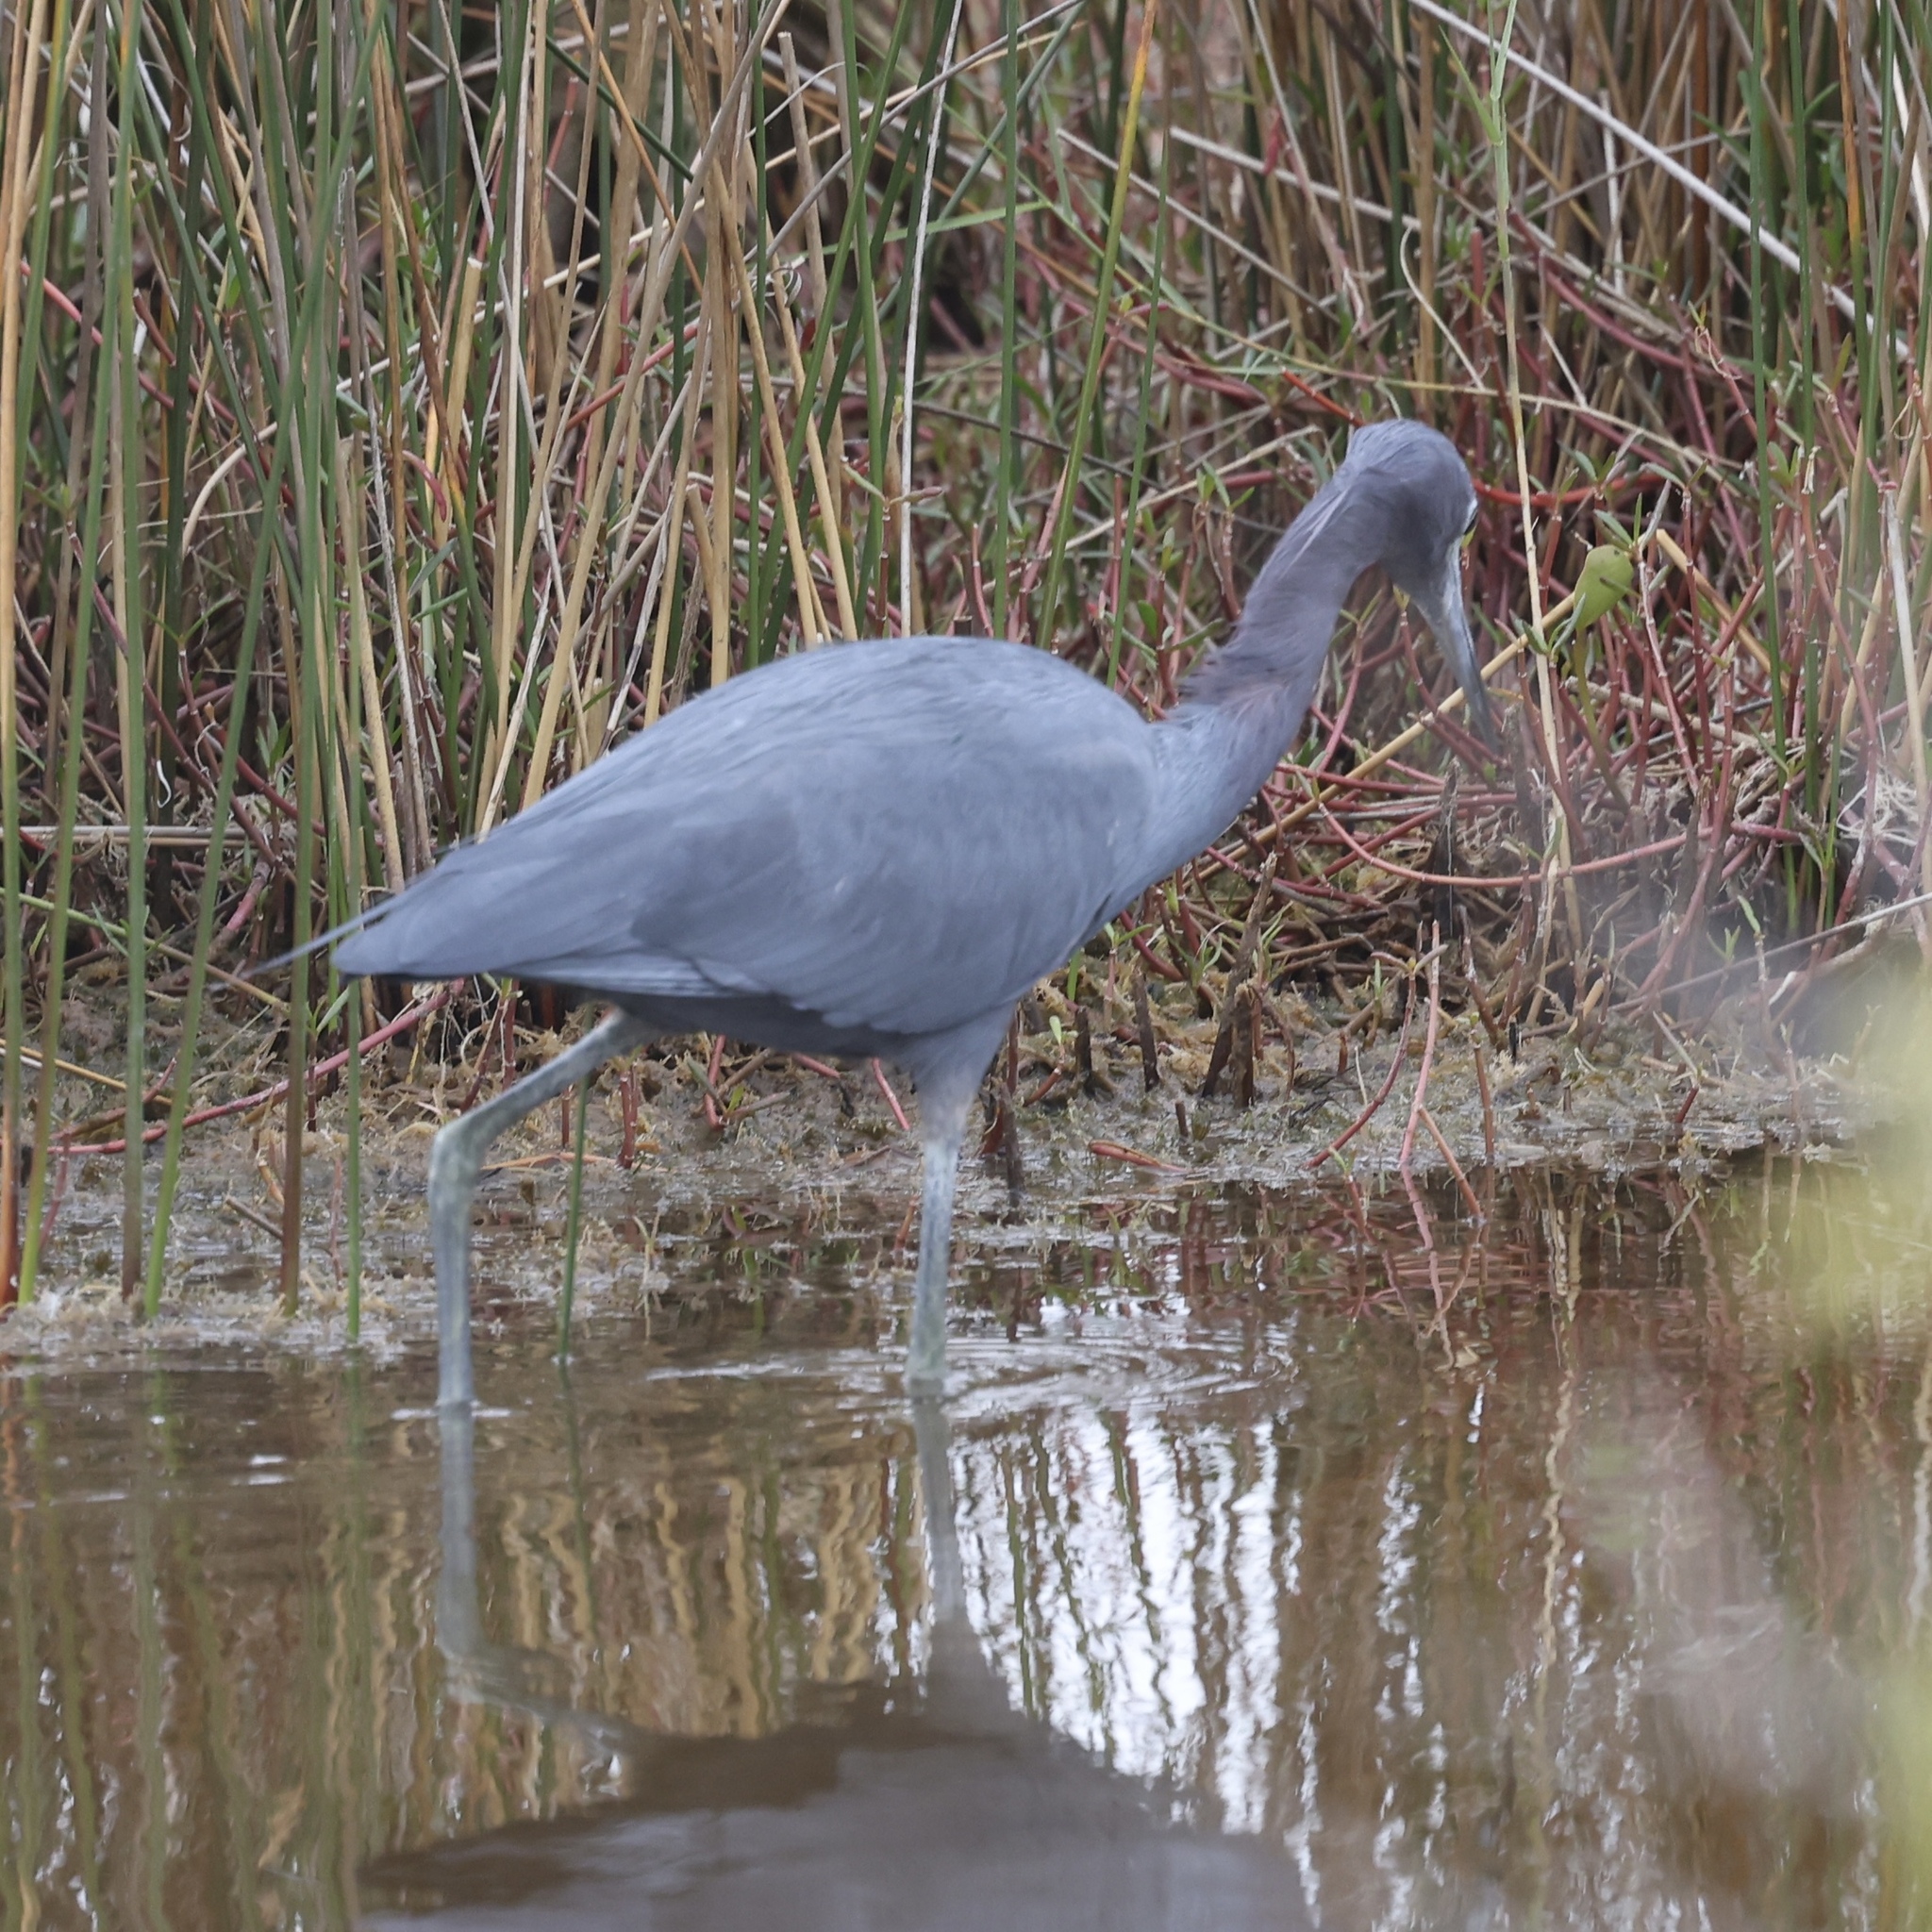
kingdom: Animalia
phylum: Chordata
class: Aves
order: Pelecaniformes
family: Ardeidae
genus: Egretta
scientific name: Egretta caerulea
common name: Little blue heron
